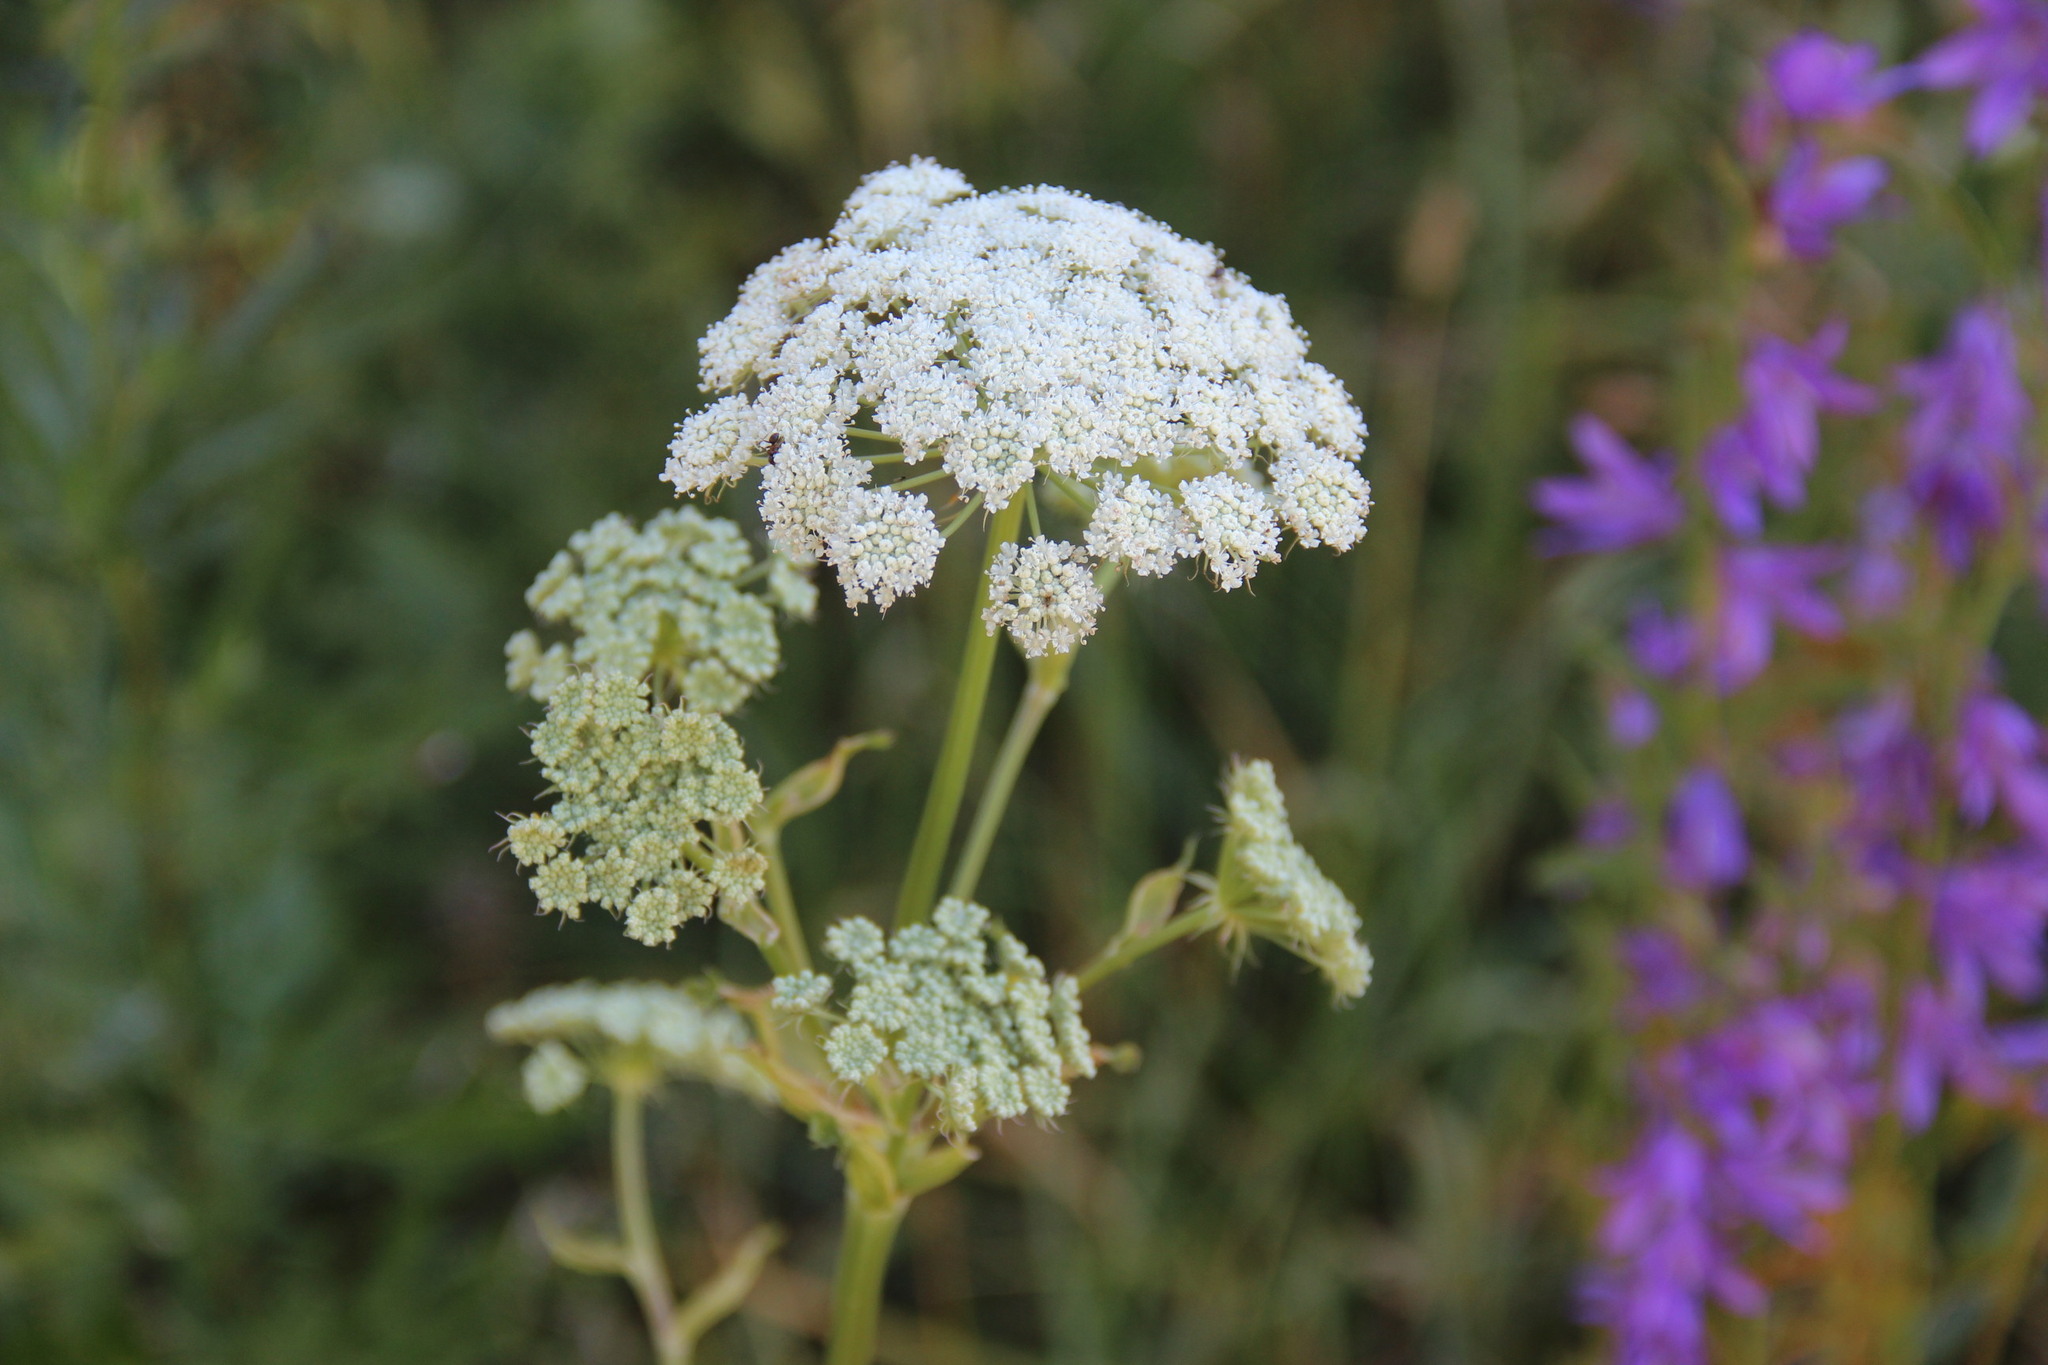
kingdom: Plantae
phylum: Tracheophyta
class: Magnoliopsida
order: Apiales
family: Apiaceae
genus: Seseli
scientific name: Seseli libanotis
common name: Mooncarrot
